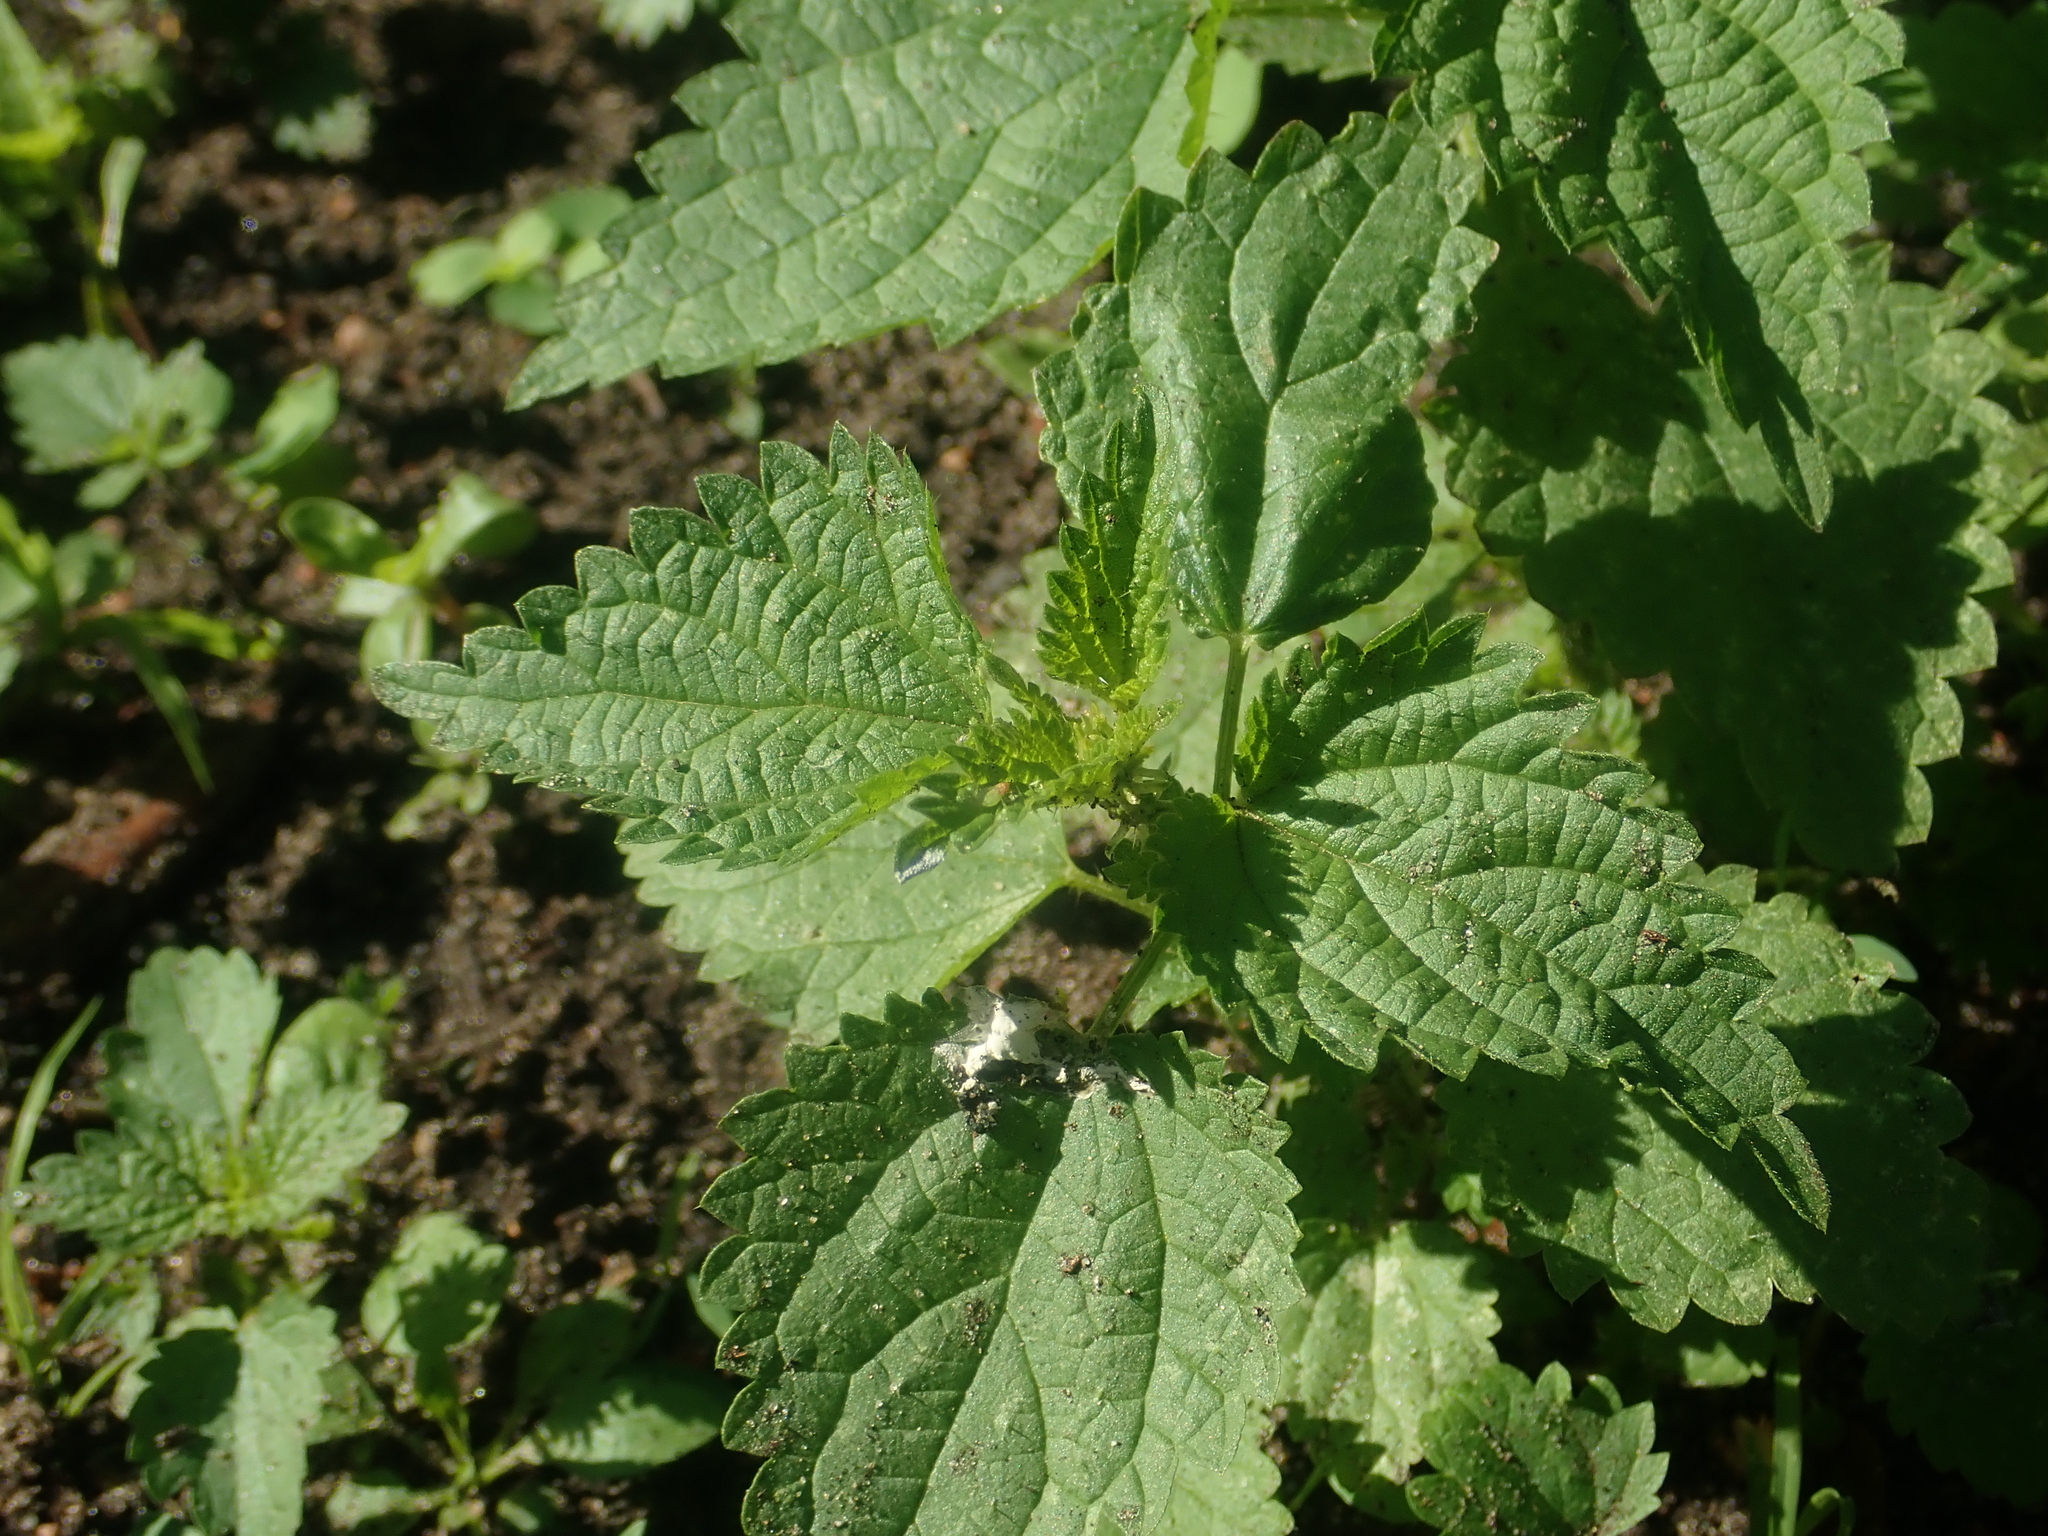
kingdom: Plantae
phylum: Tracheophyta
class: Magnoliopsida
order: Rosales
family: Urticaceae
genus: Urtica
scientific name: Urtica dioica
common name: Common nettle
